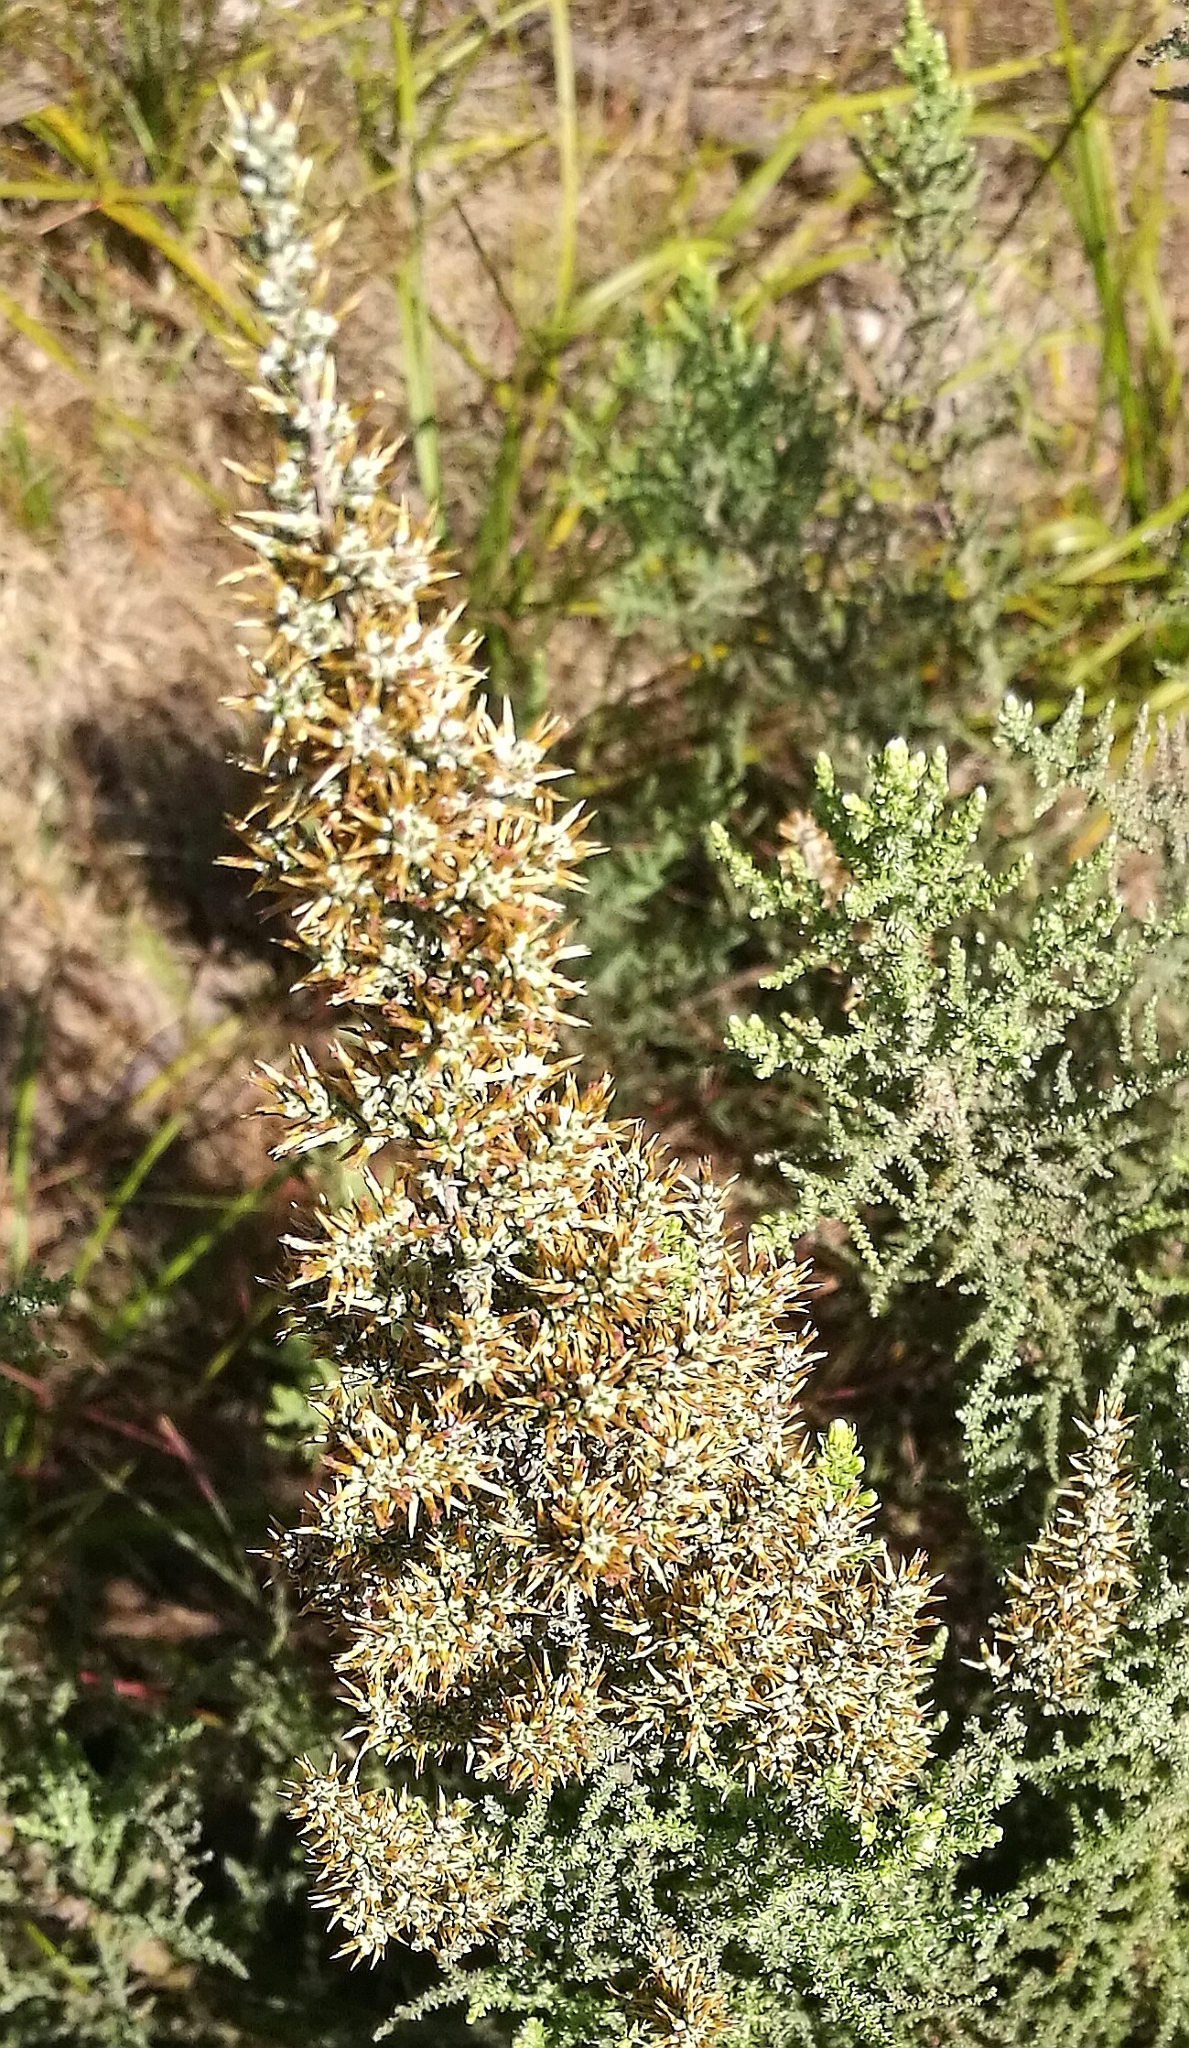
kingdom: Plantae
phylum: Tracheophyta
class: Magnoliopsida
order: Asterales
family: Asteraceae
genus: Seriphium
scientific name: Seriphium plumosum
